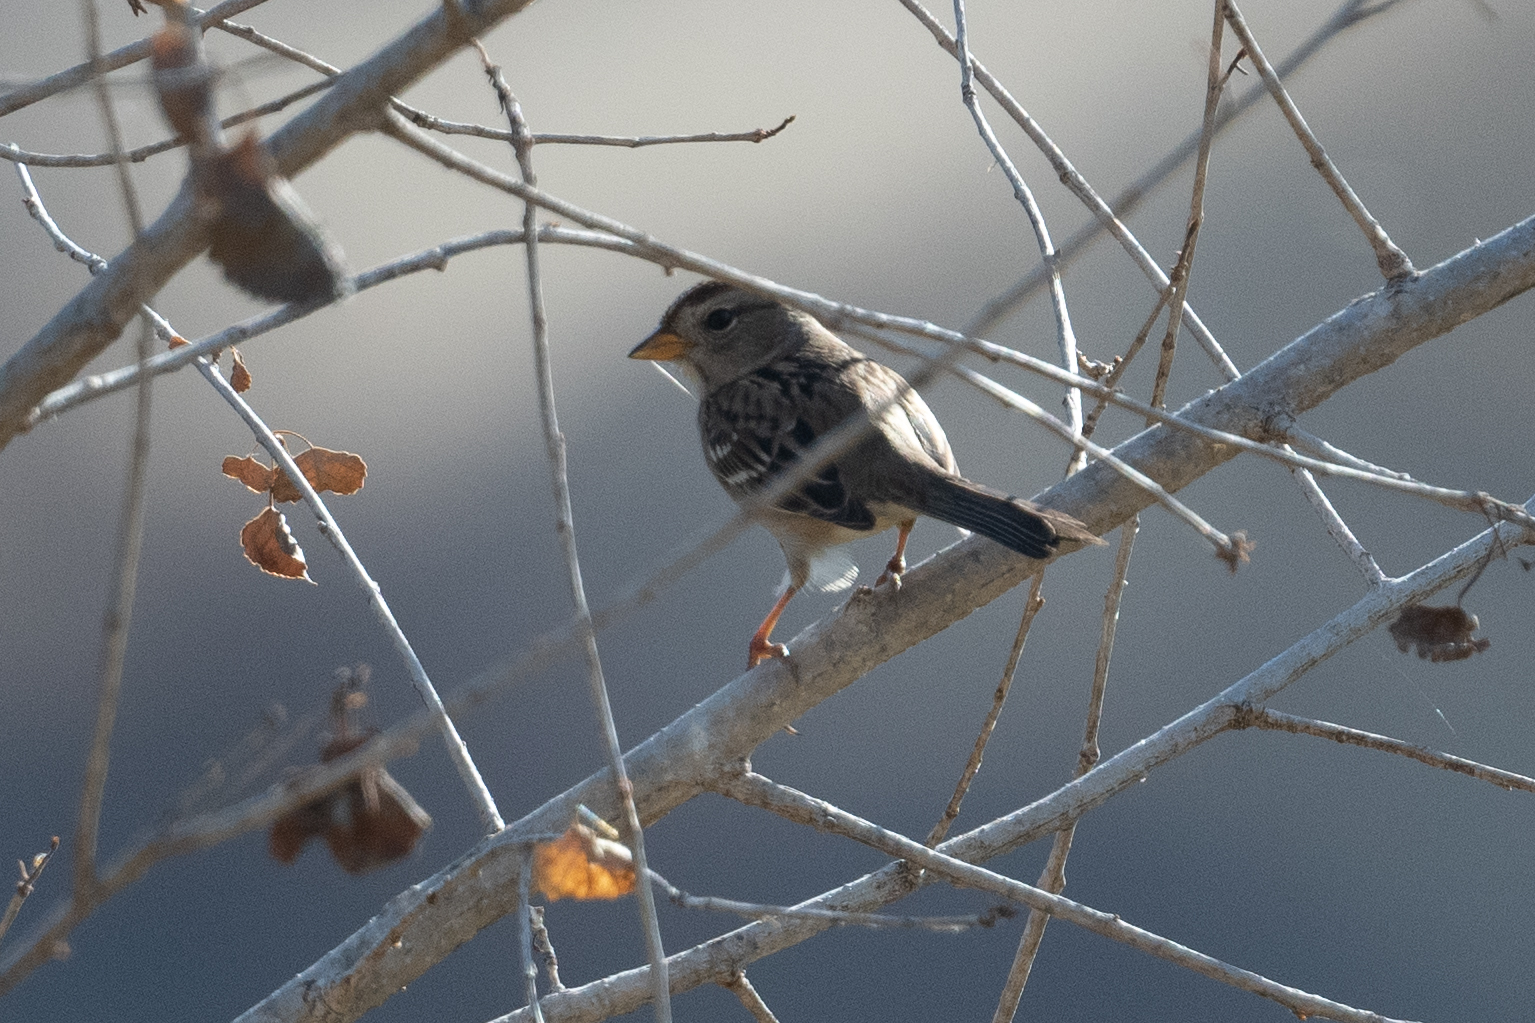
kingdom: Animalia
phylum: Chordata
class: Aves
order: Passeriformes
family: Passerellidae
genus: Zonotrichia
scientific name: Zonotrichia leucophrys
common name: White-crowned sparrow
